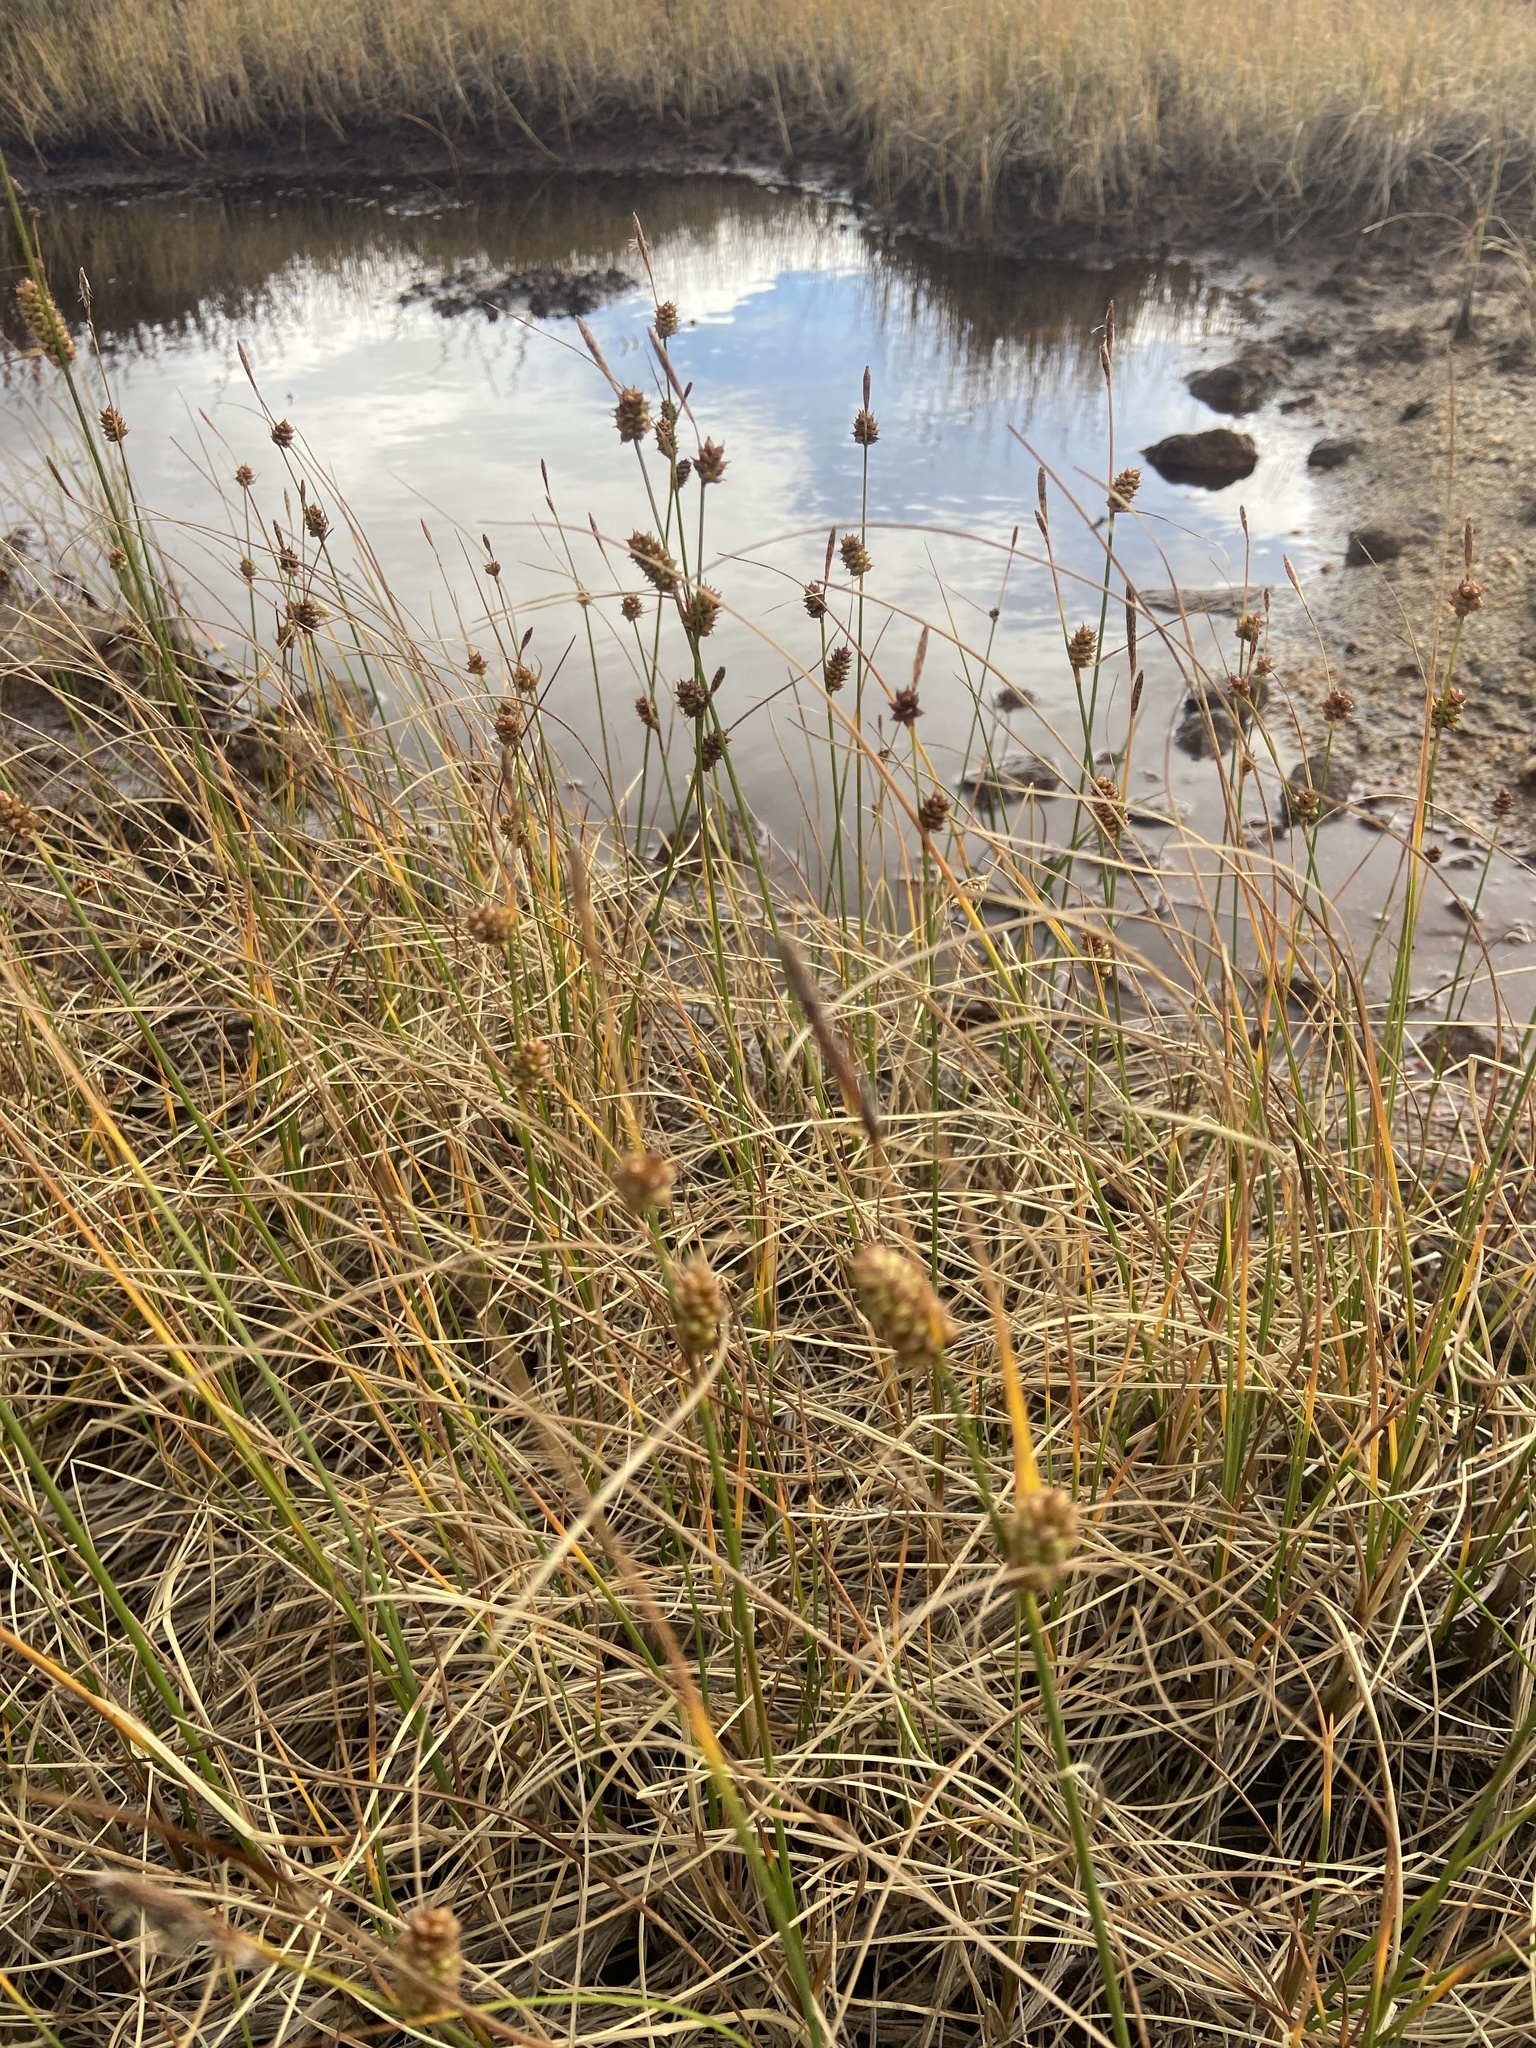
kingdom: Plantae
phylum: Tracheophyta
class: Liliopsida
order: Poales
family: Cyperaceae
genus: Carex
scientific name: Carex rotundata
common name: Round-fruited sedge
